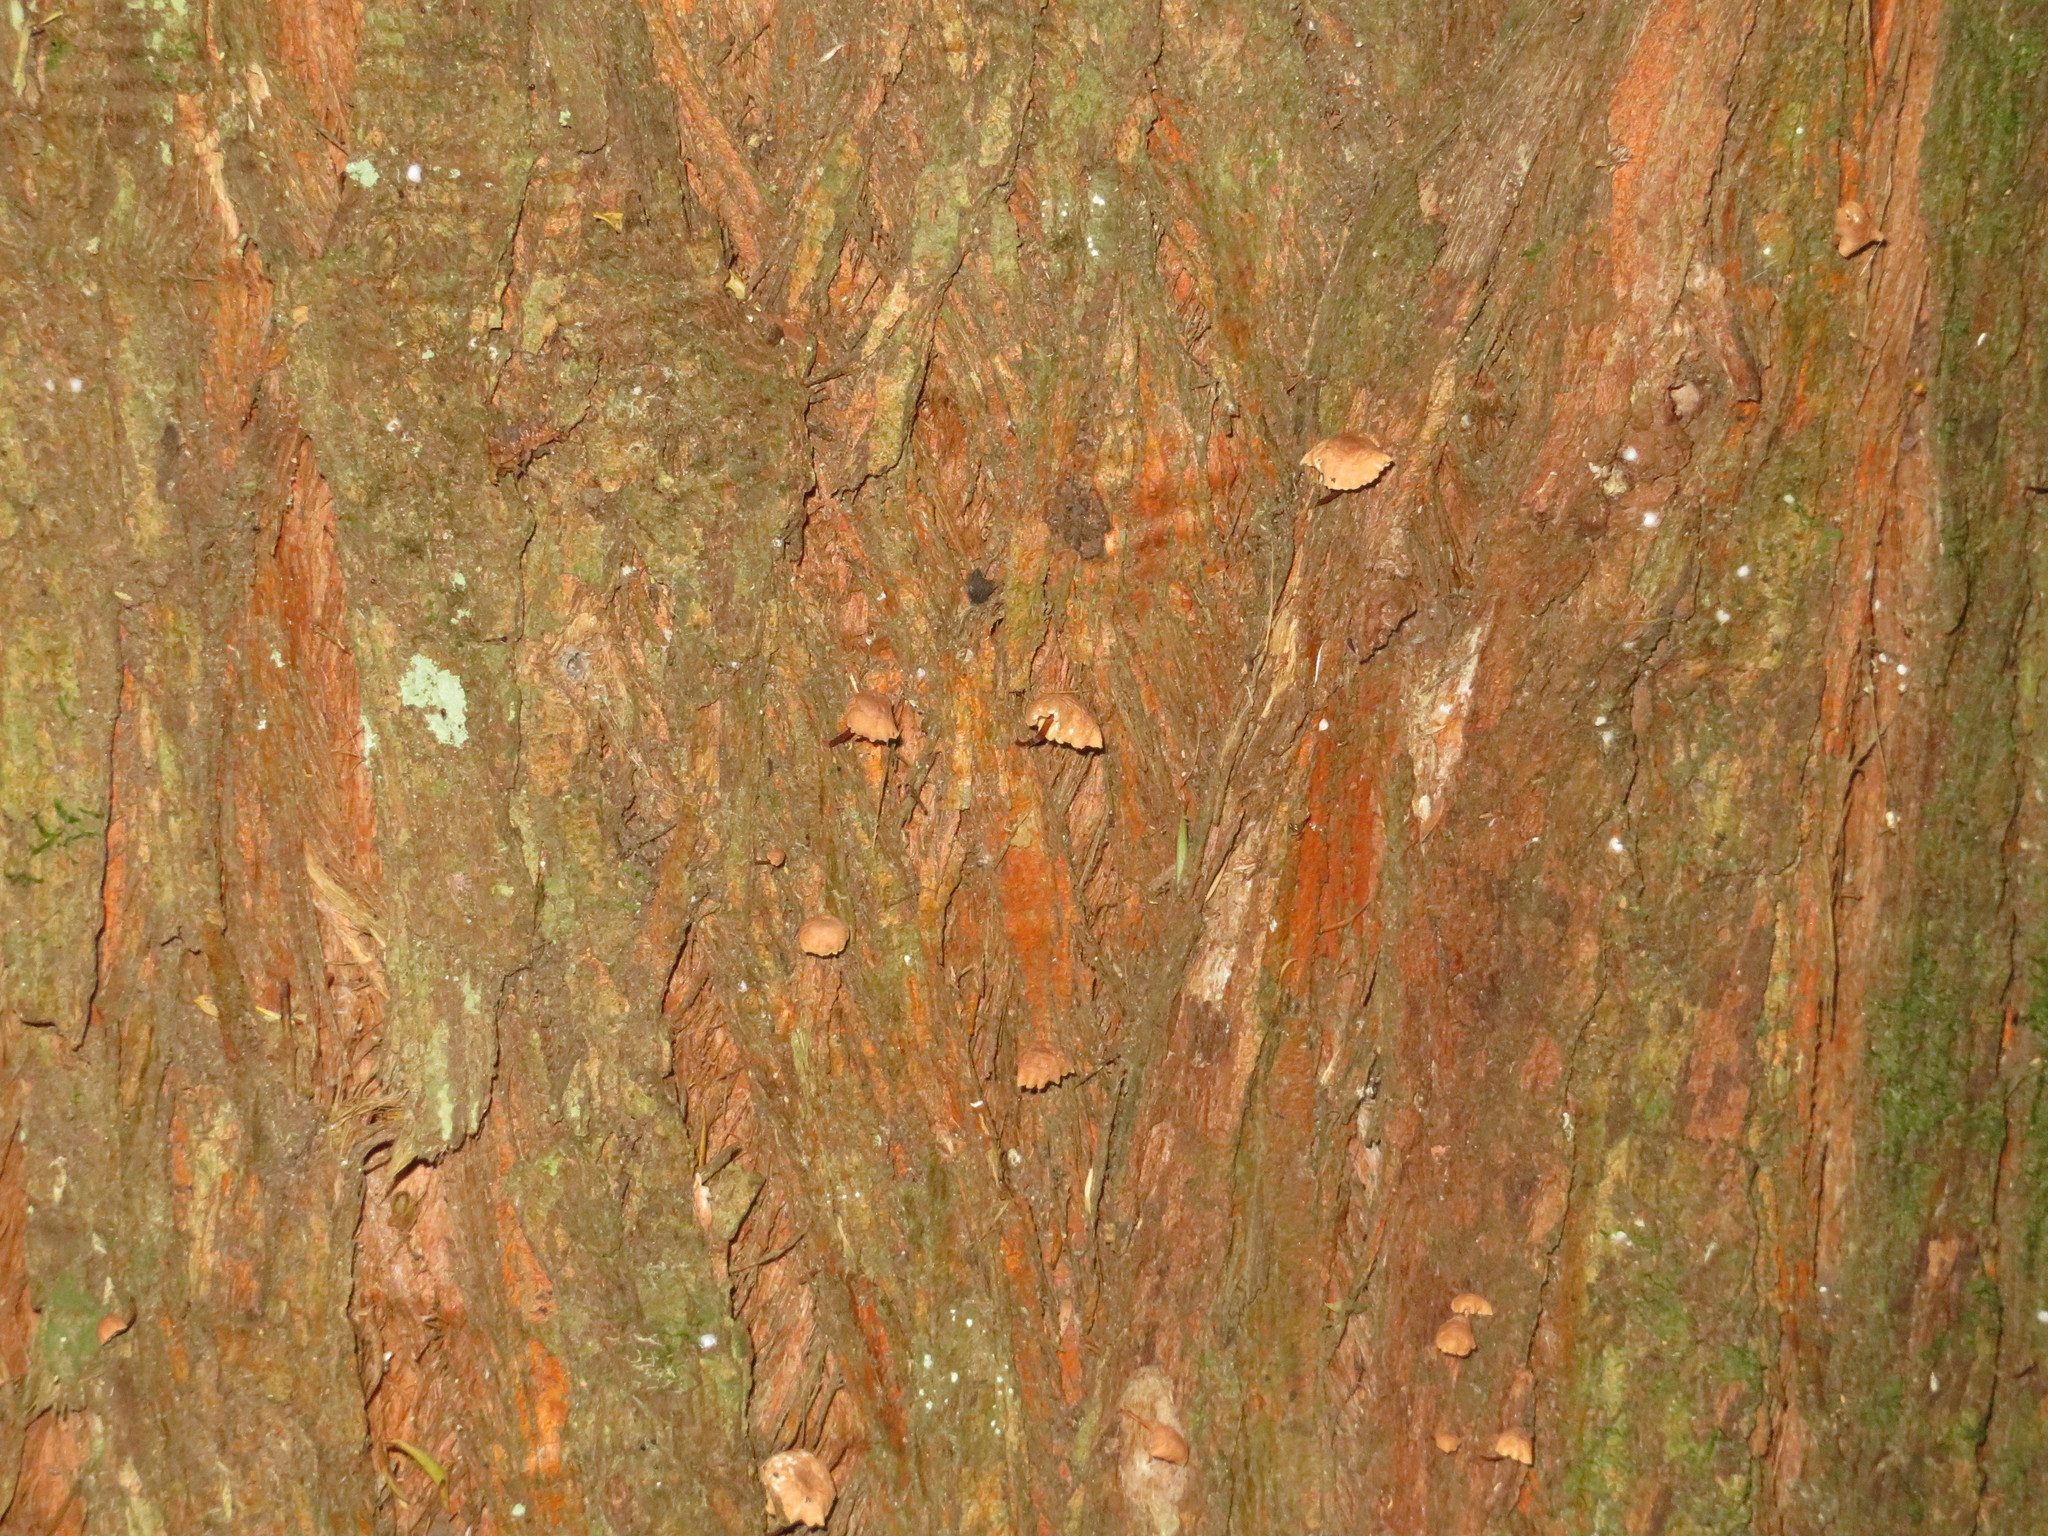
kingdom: Fungi
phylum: Basidiomycota
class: Agaricomycetes
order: Agaricales
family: Omphalotaceae
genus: Mycetinis
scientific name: Mycetinis curraniae
